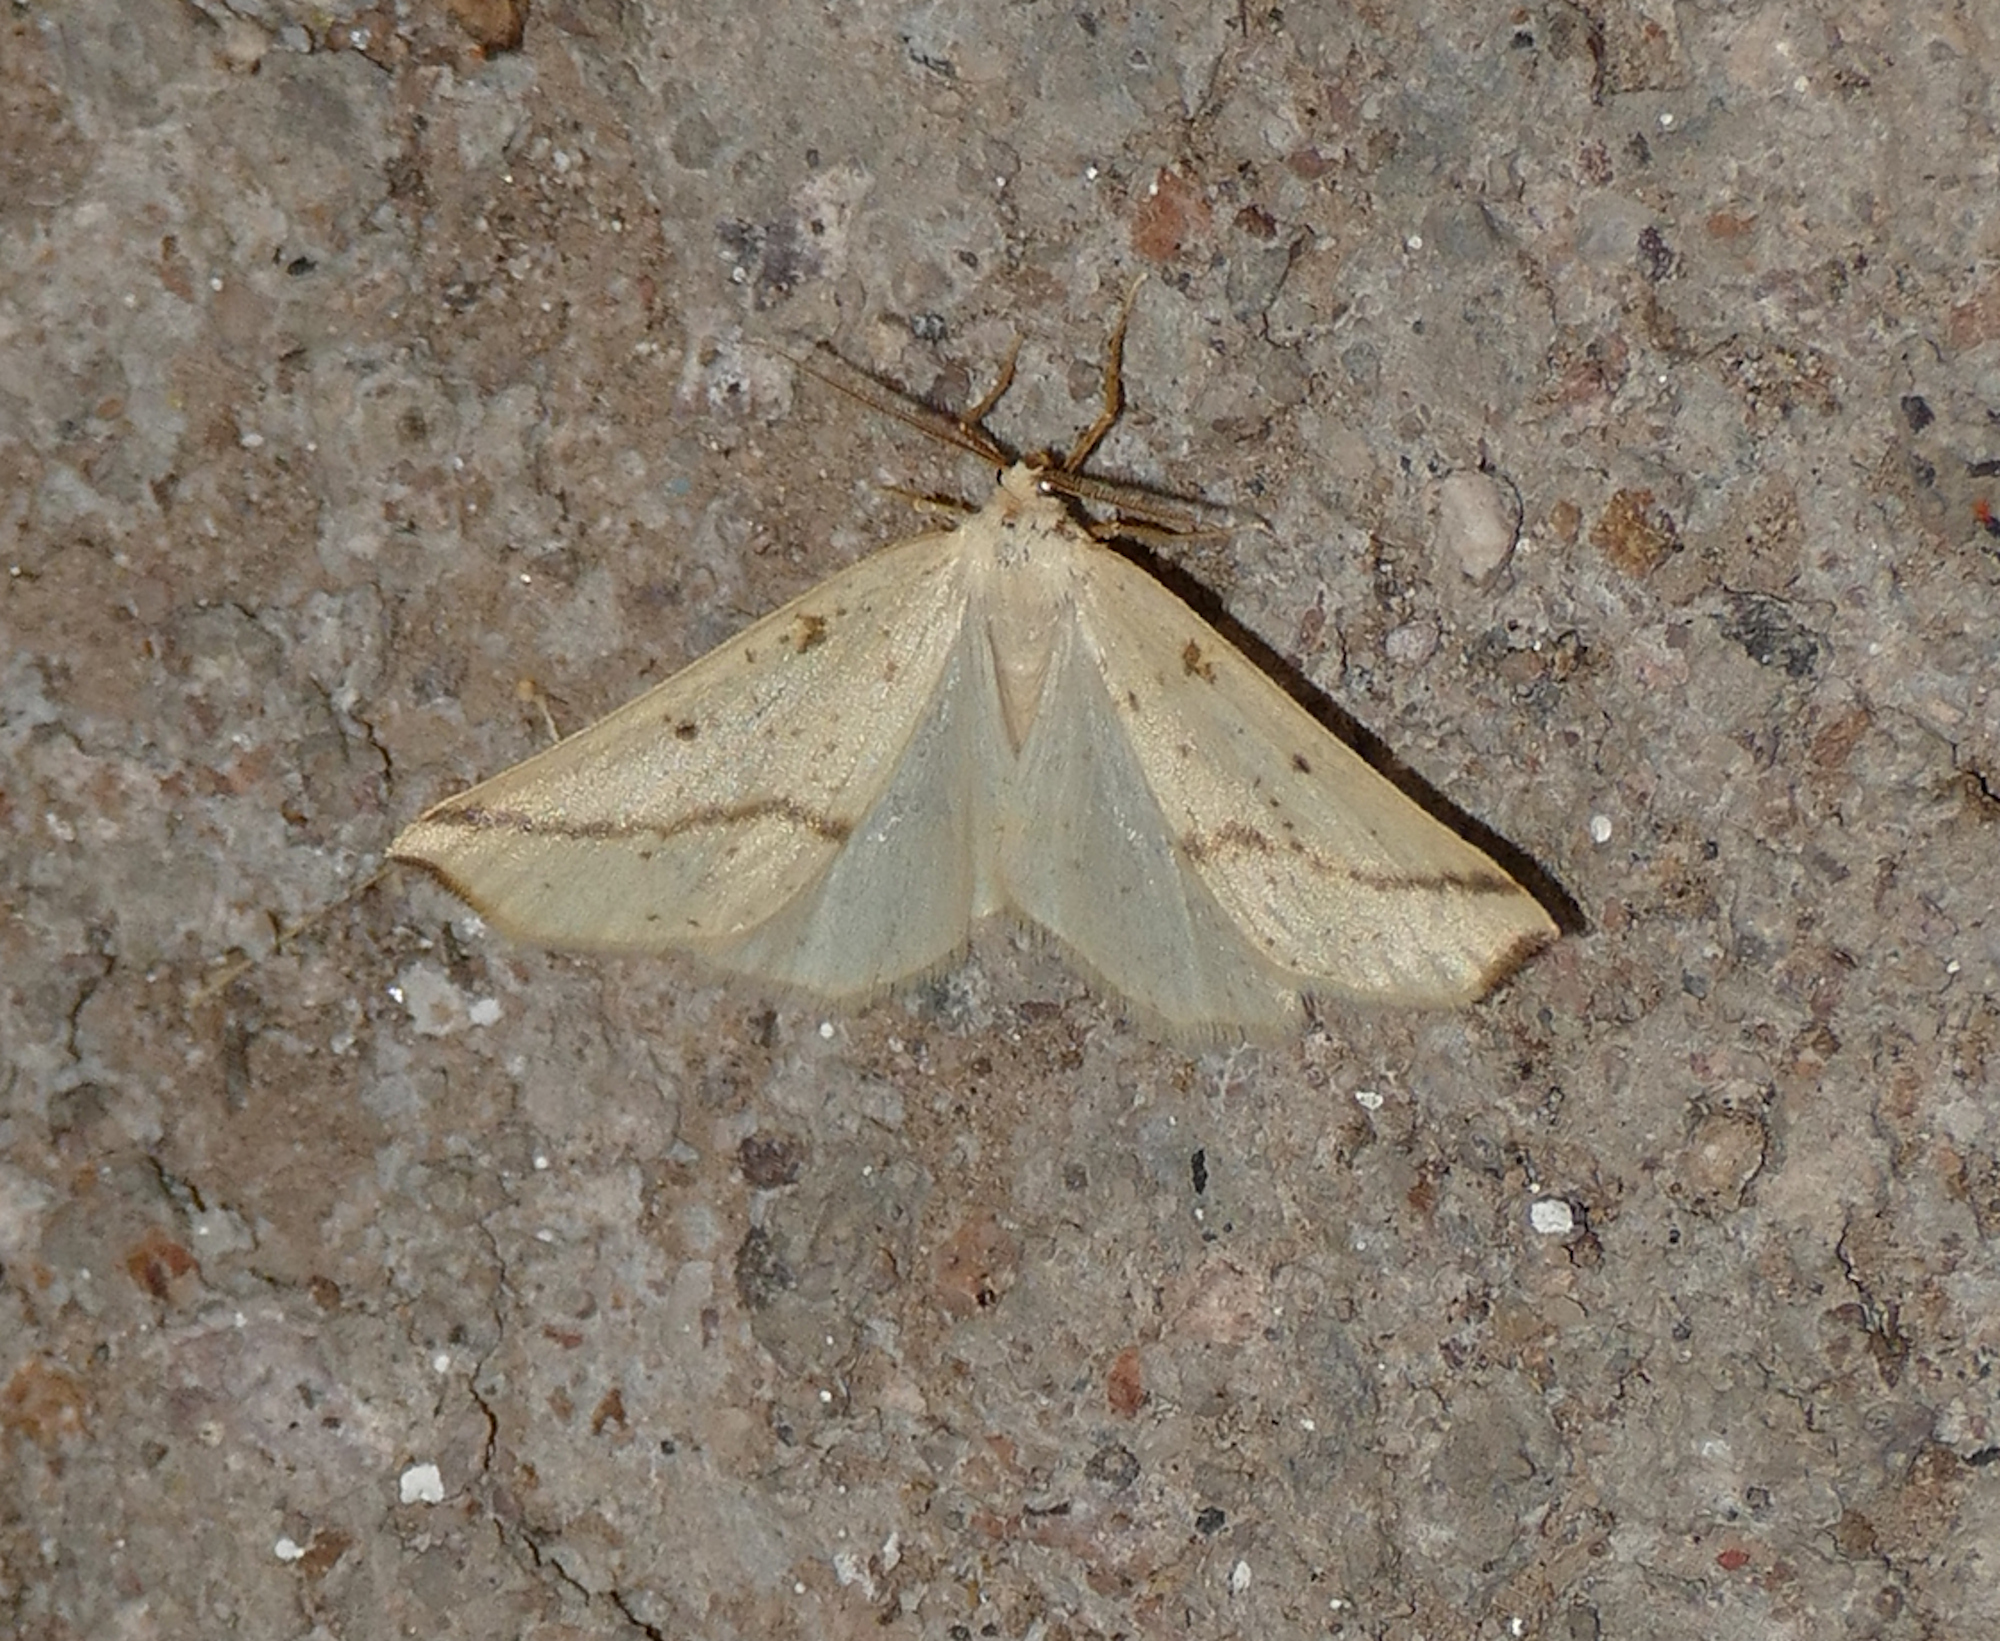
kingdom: Animalia
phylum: Arthropoda
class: Insecta
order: Lepidoptera
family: Geometridae
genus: Neoterpes
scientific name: Neoterpes ephelidaria
